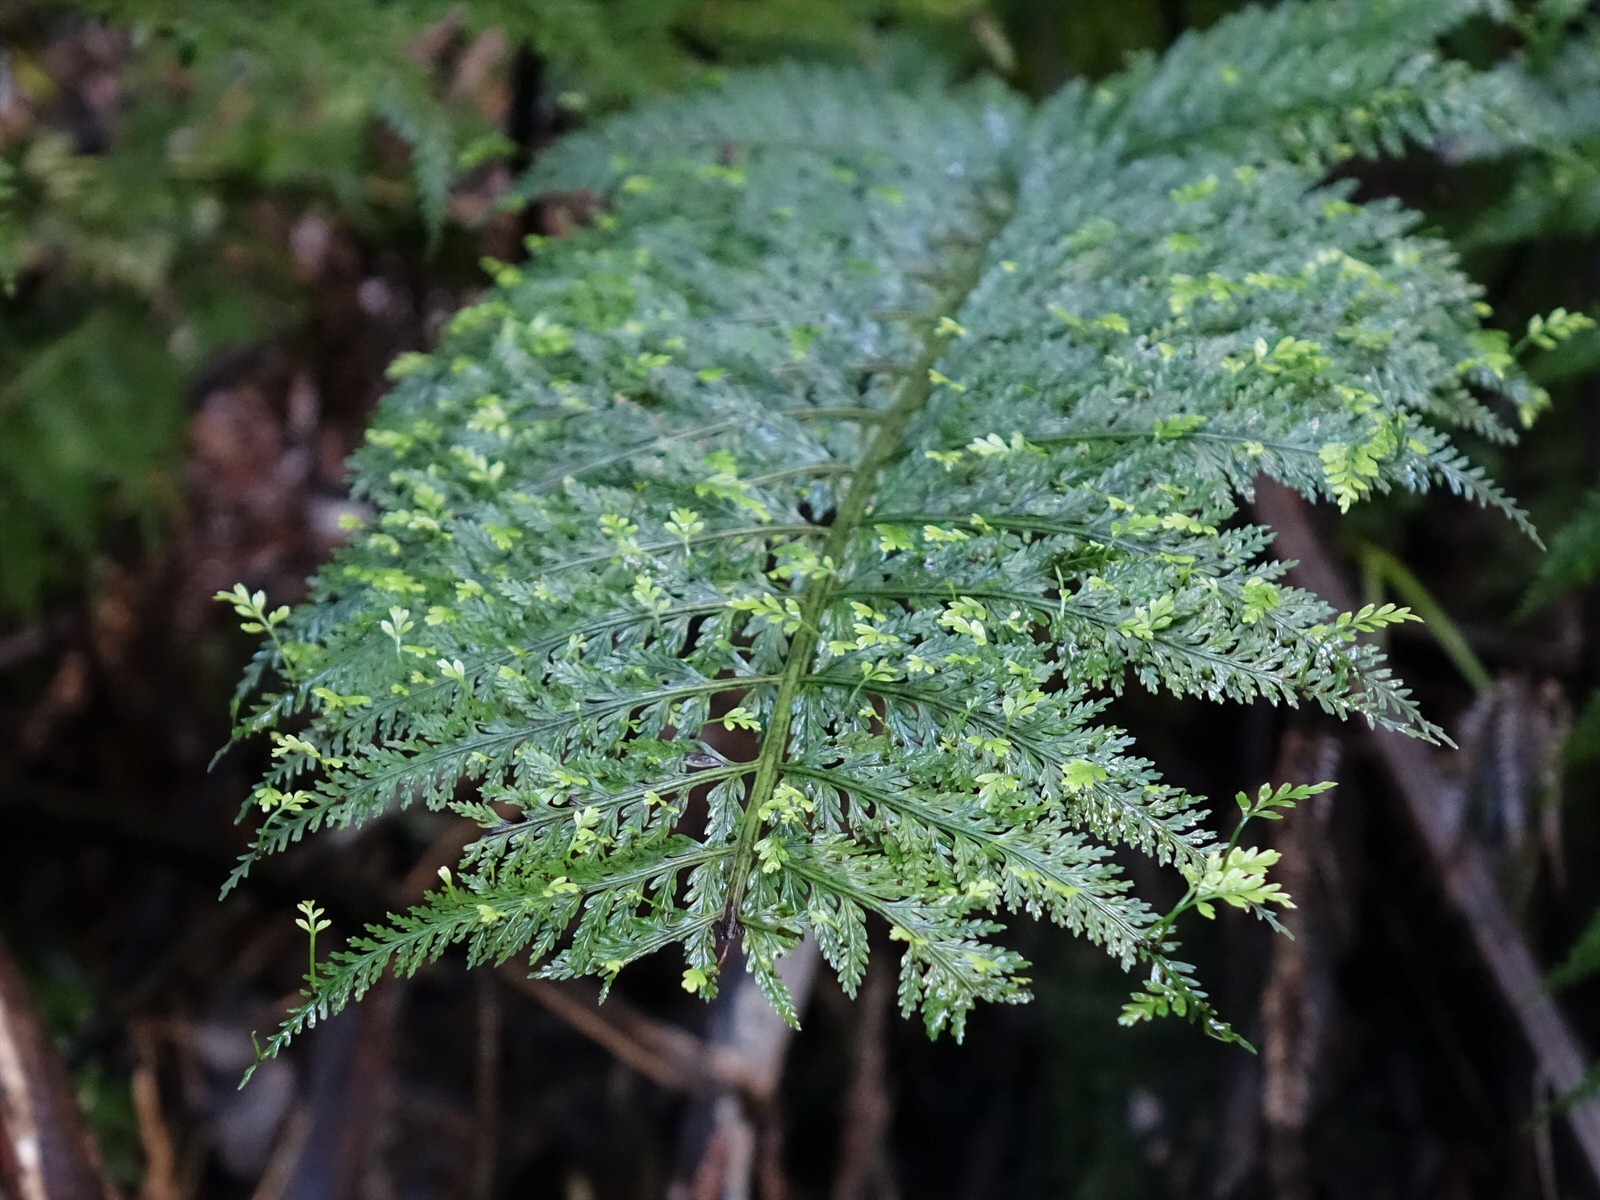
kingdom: Plantae
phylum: Tracheophyta
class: Polypodiopsida
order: Polypodiales
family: Aspleniaceae
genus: Asplenium
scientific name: Asplenium bulbiferum
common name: Mother fern
